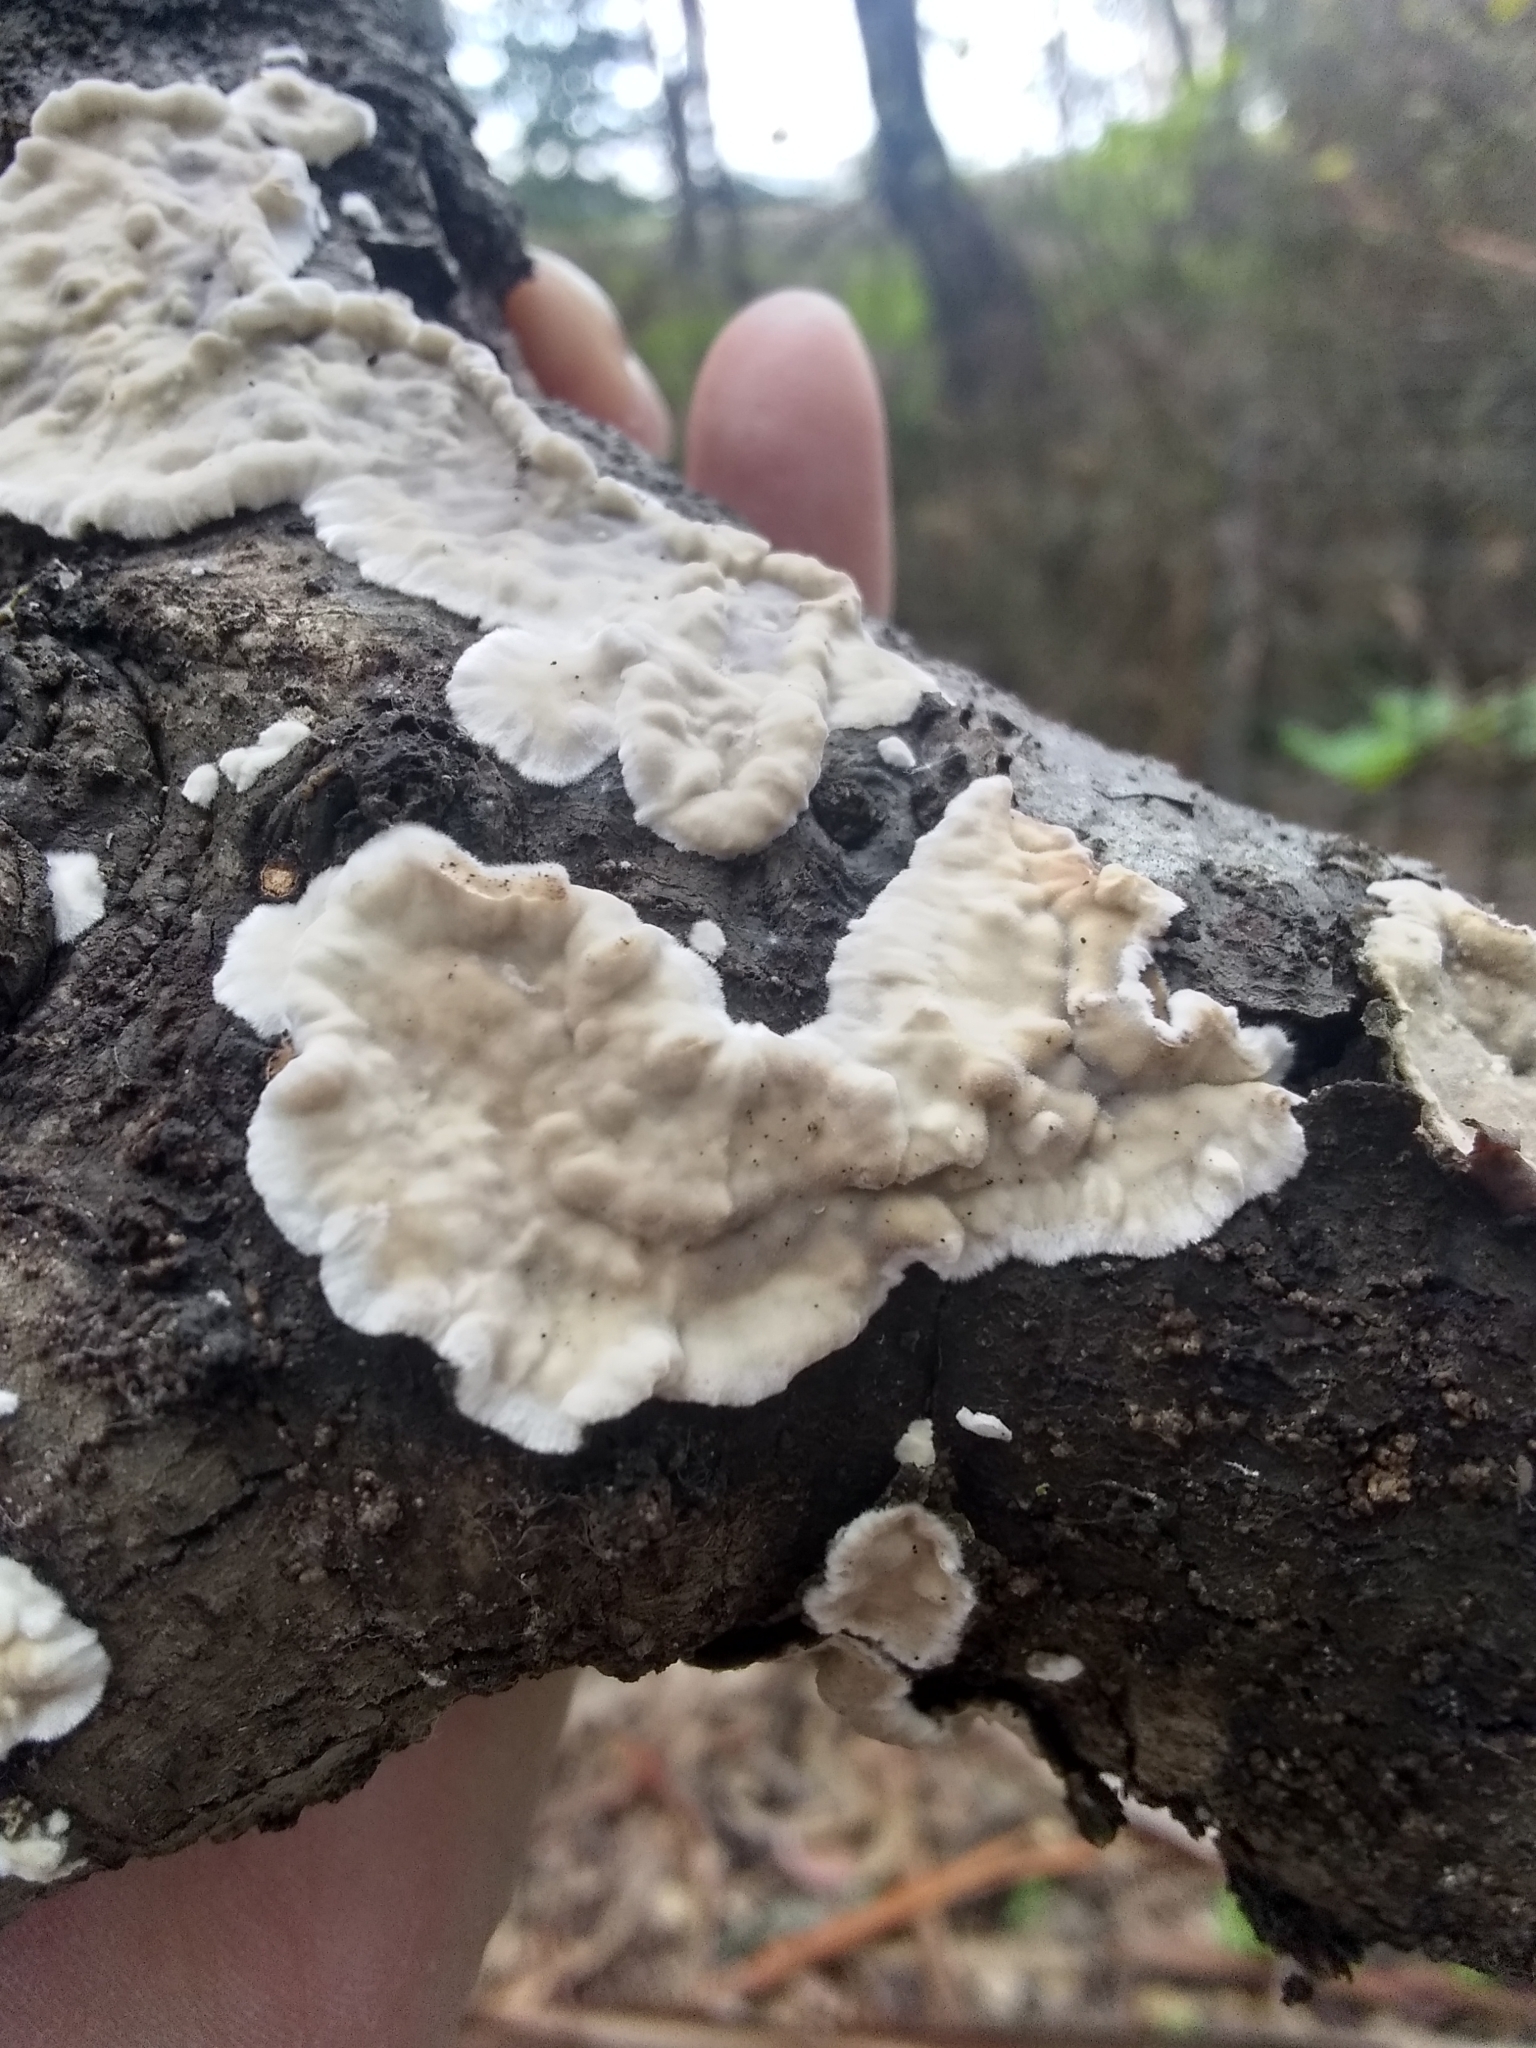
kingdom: Fungi
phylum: Basidiomycota
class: Agaricomycetes
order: Polyporales
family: Irpicaceae
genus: Byssomerulius
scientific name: Byssomerulius corium
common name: Netted crust
